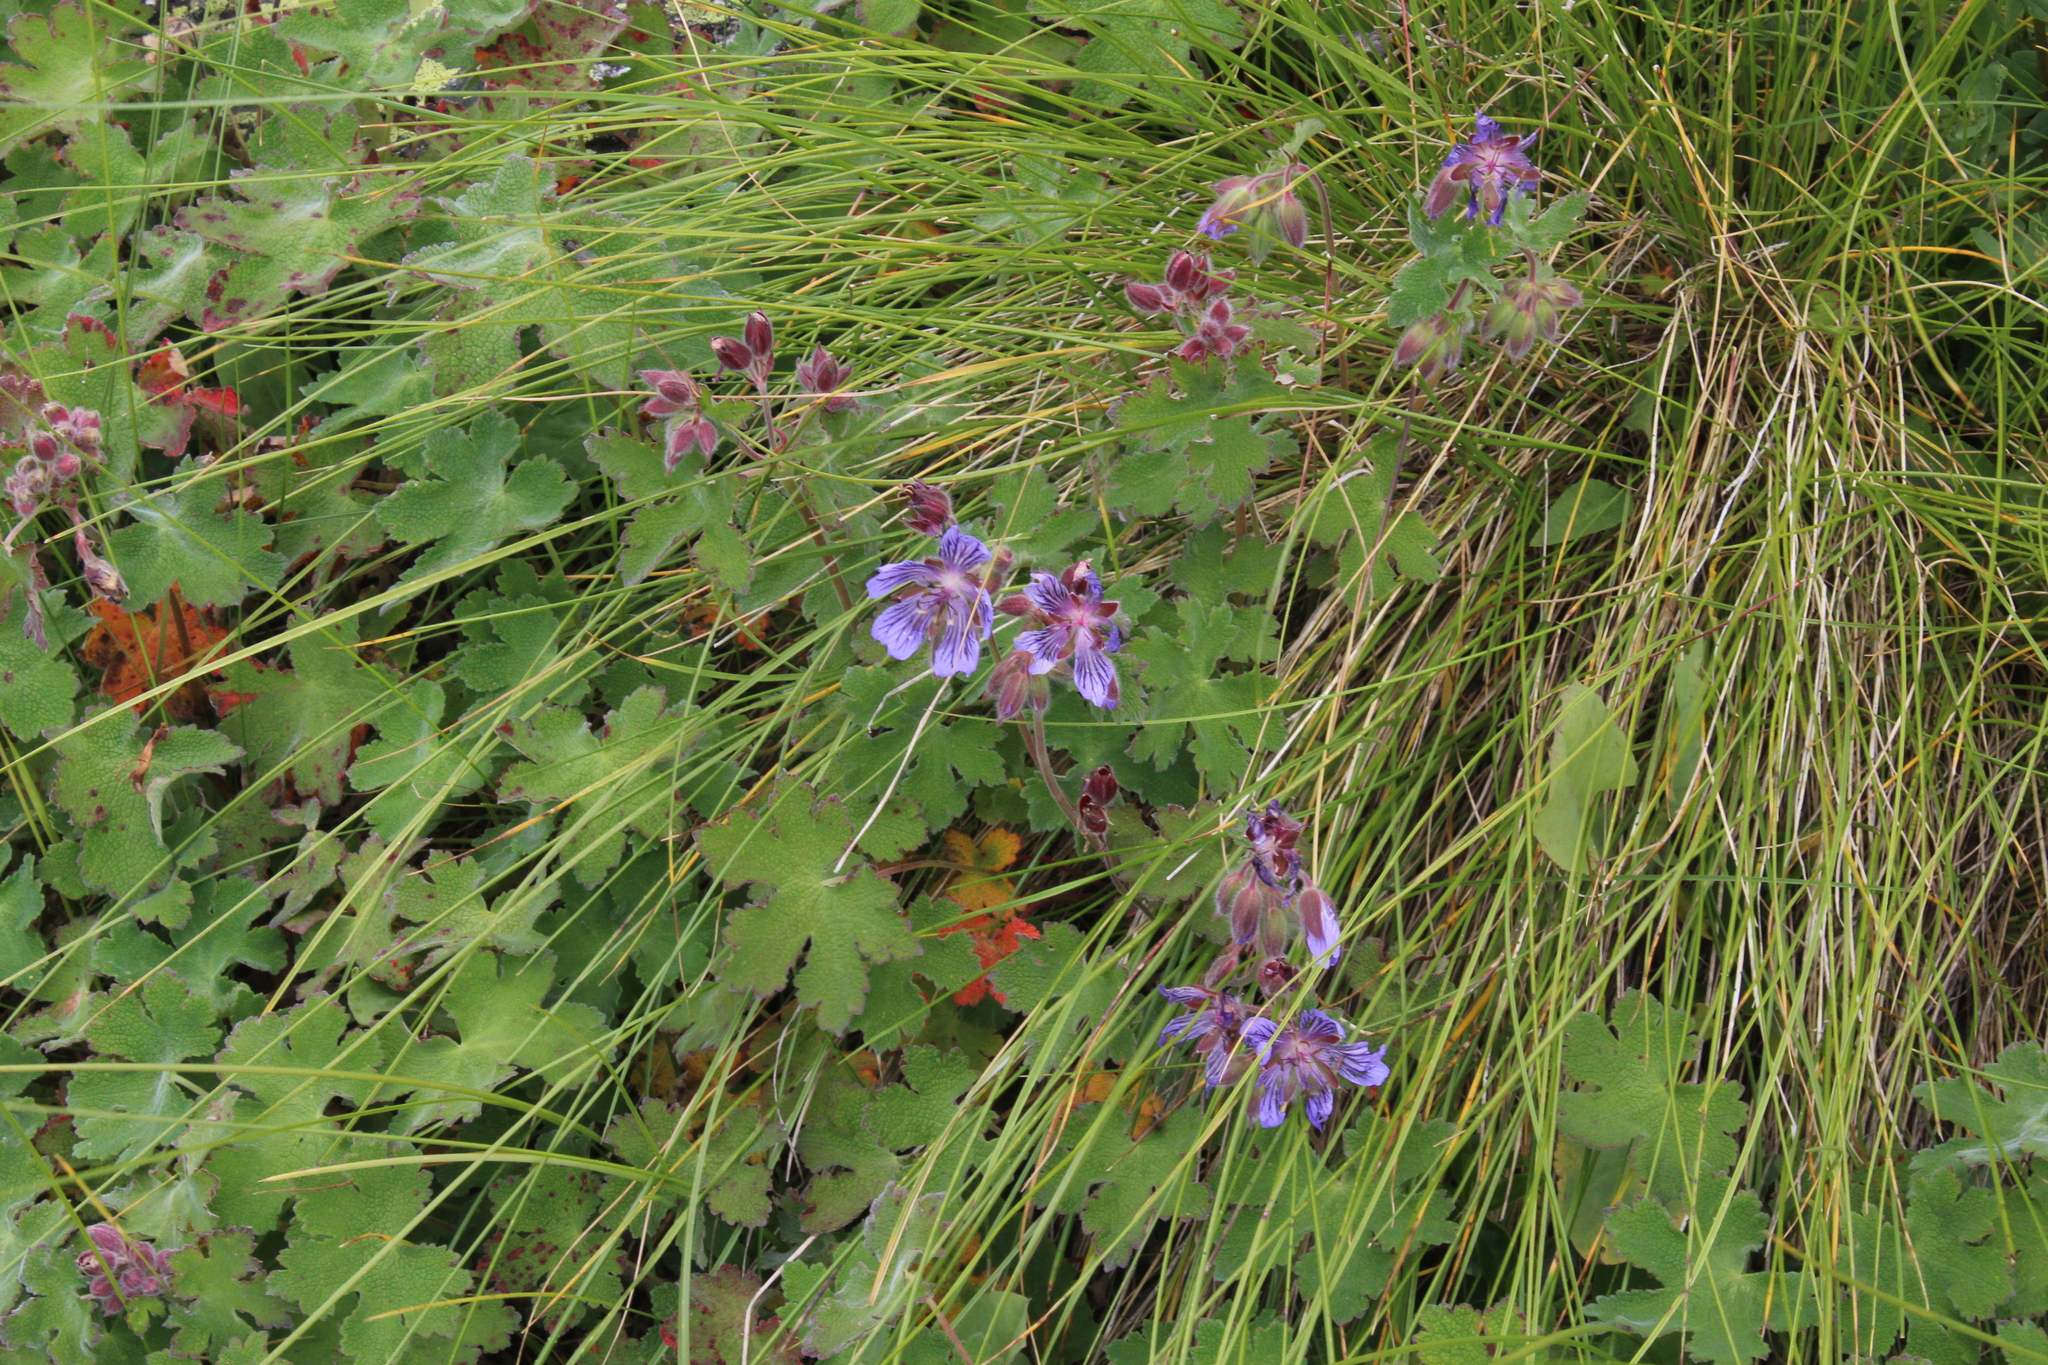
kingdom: Plantae
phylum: Tracheophyta
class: Magnoliopsida
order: Geraniales
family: Geraniaceae
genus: Geranium
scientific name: Geranium renardii
